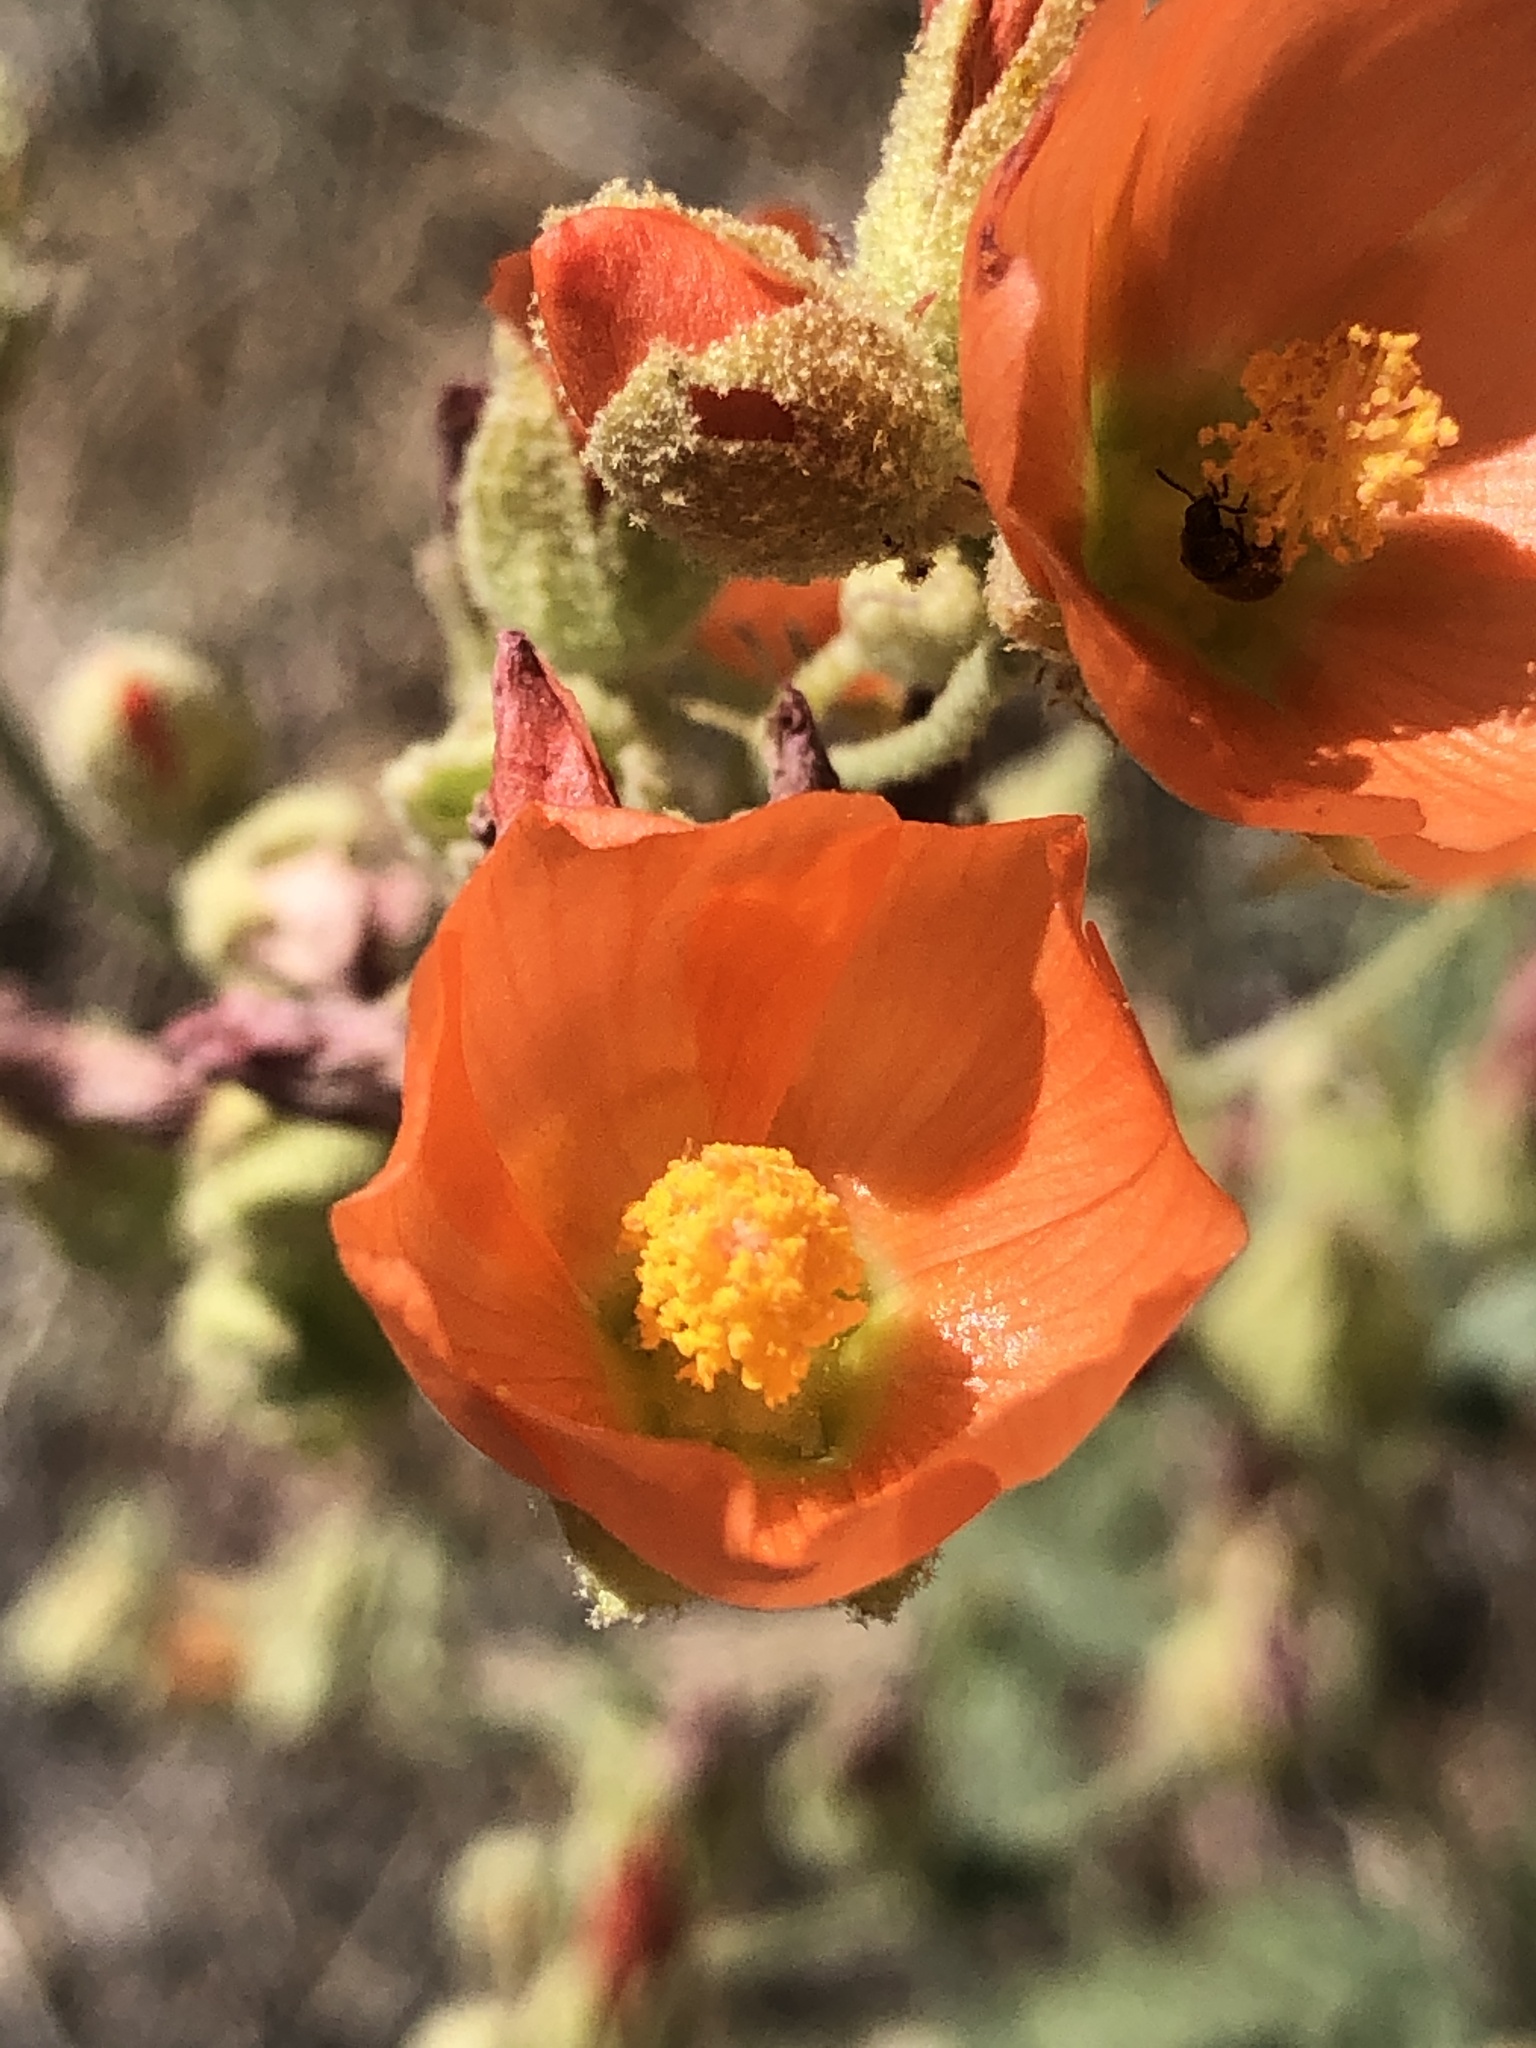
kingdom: Plantae
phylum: Tracheophyta
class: Magnoliopsida
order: Malvales
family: Malvaceae
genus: Sphaeralcea
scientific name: Sphaeralcea ambigua
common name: Apricot globe-mallow
